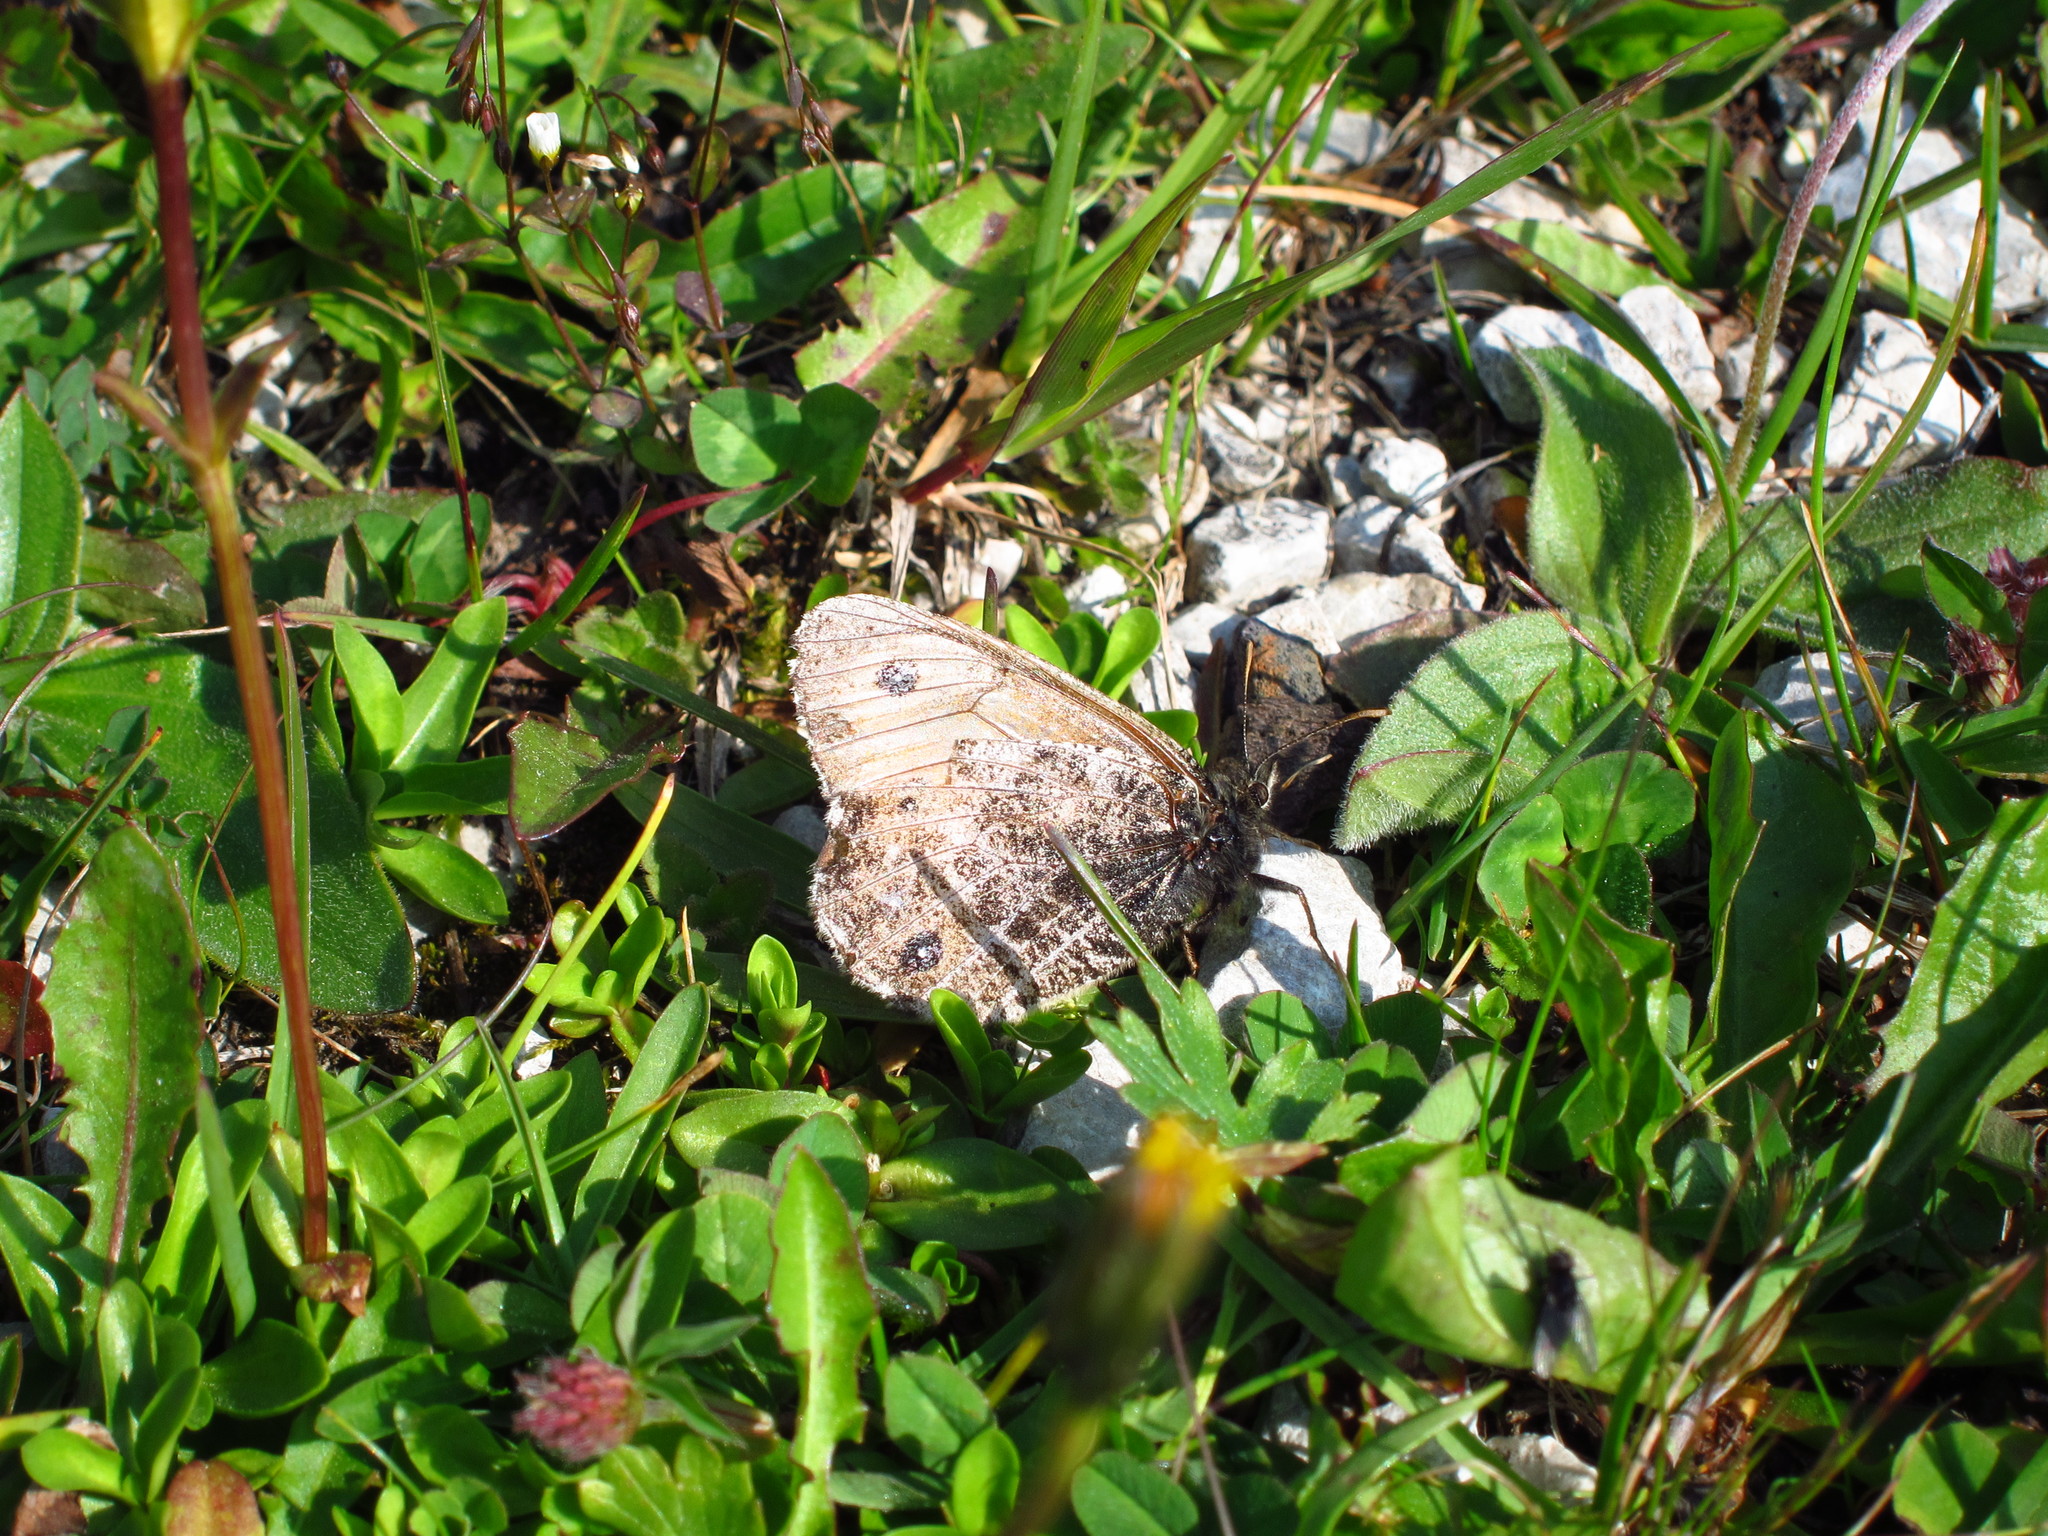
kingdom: Animalia
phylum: Arthropoda
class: Insecta
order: Lepidoptera
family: Nymphalidae
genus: Oeneis
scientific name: Oeneis aello
